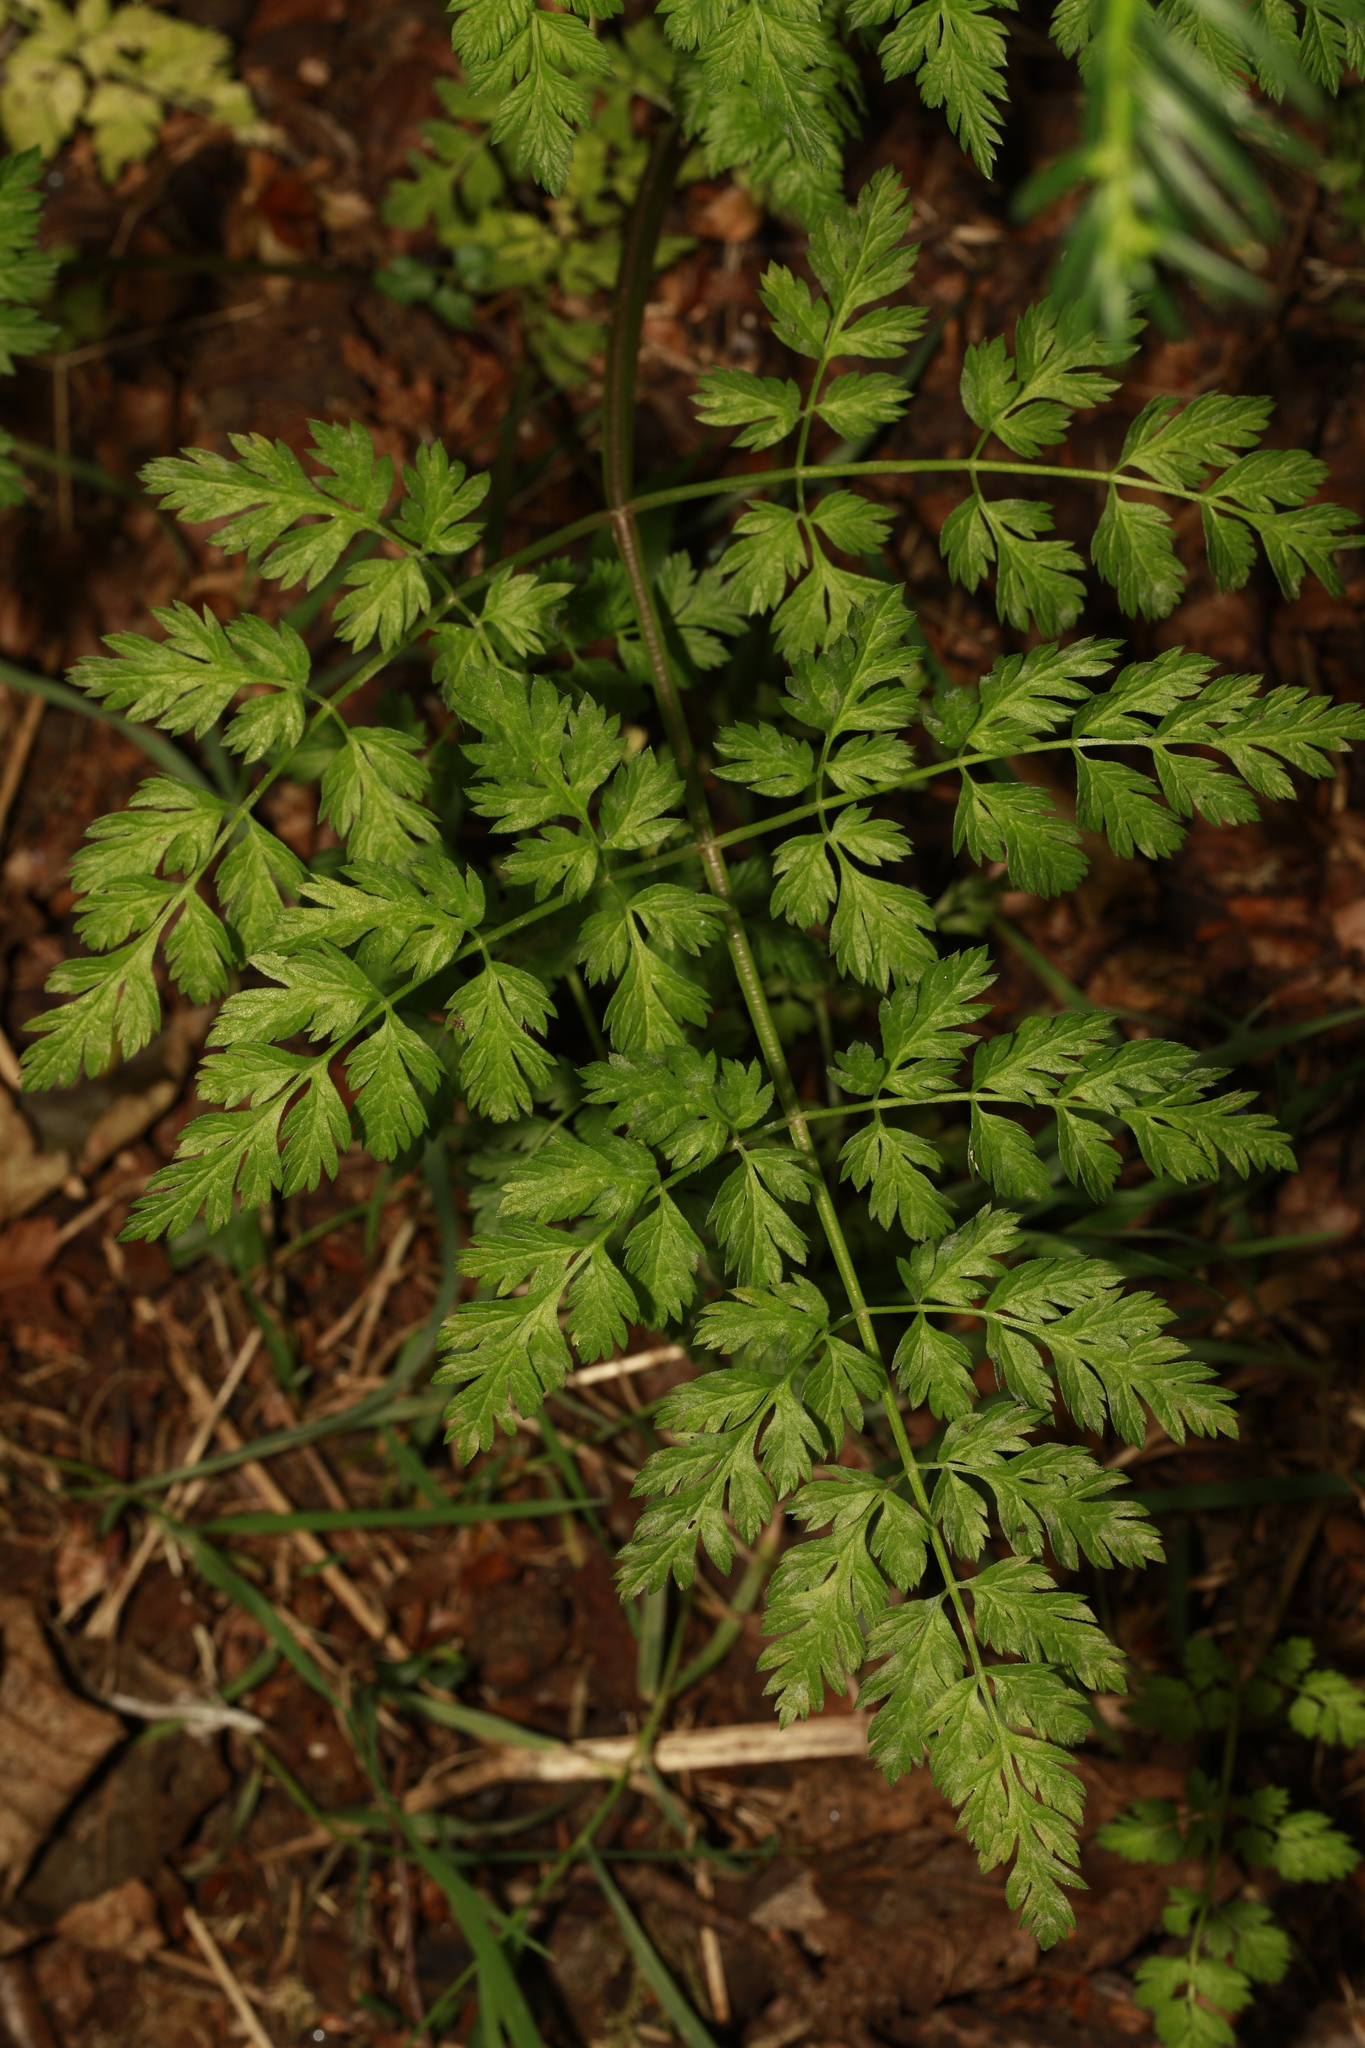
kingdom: Plantae
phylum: Tracheophyta
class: Magnoliopsida
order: Apiales
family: Apiaceae
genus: Anthriscus
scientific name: Anthriscus sylvestris
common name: Cow parsley
